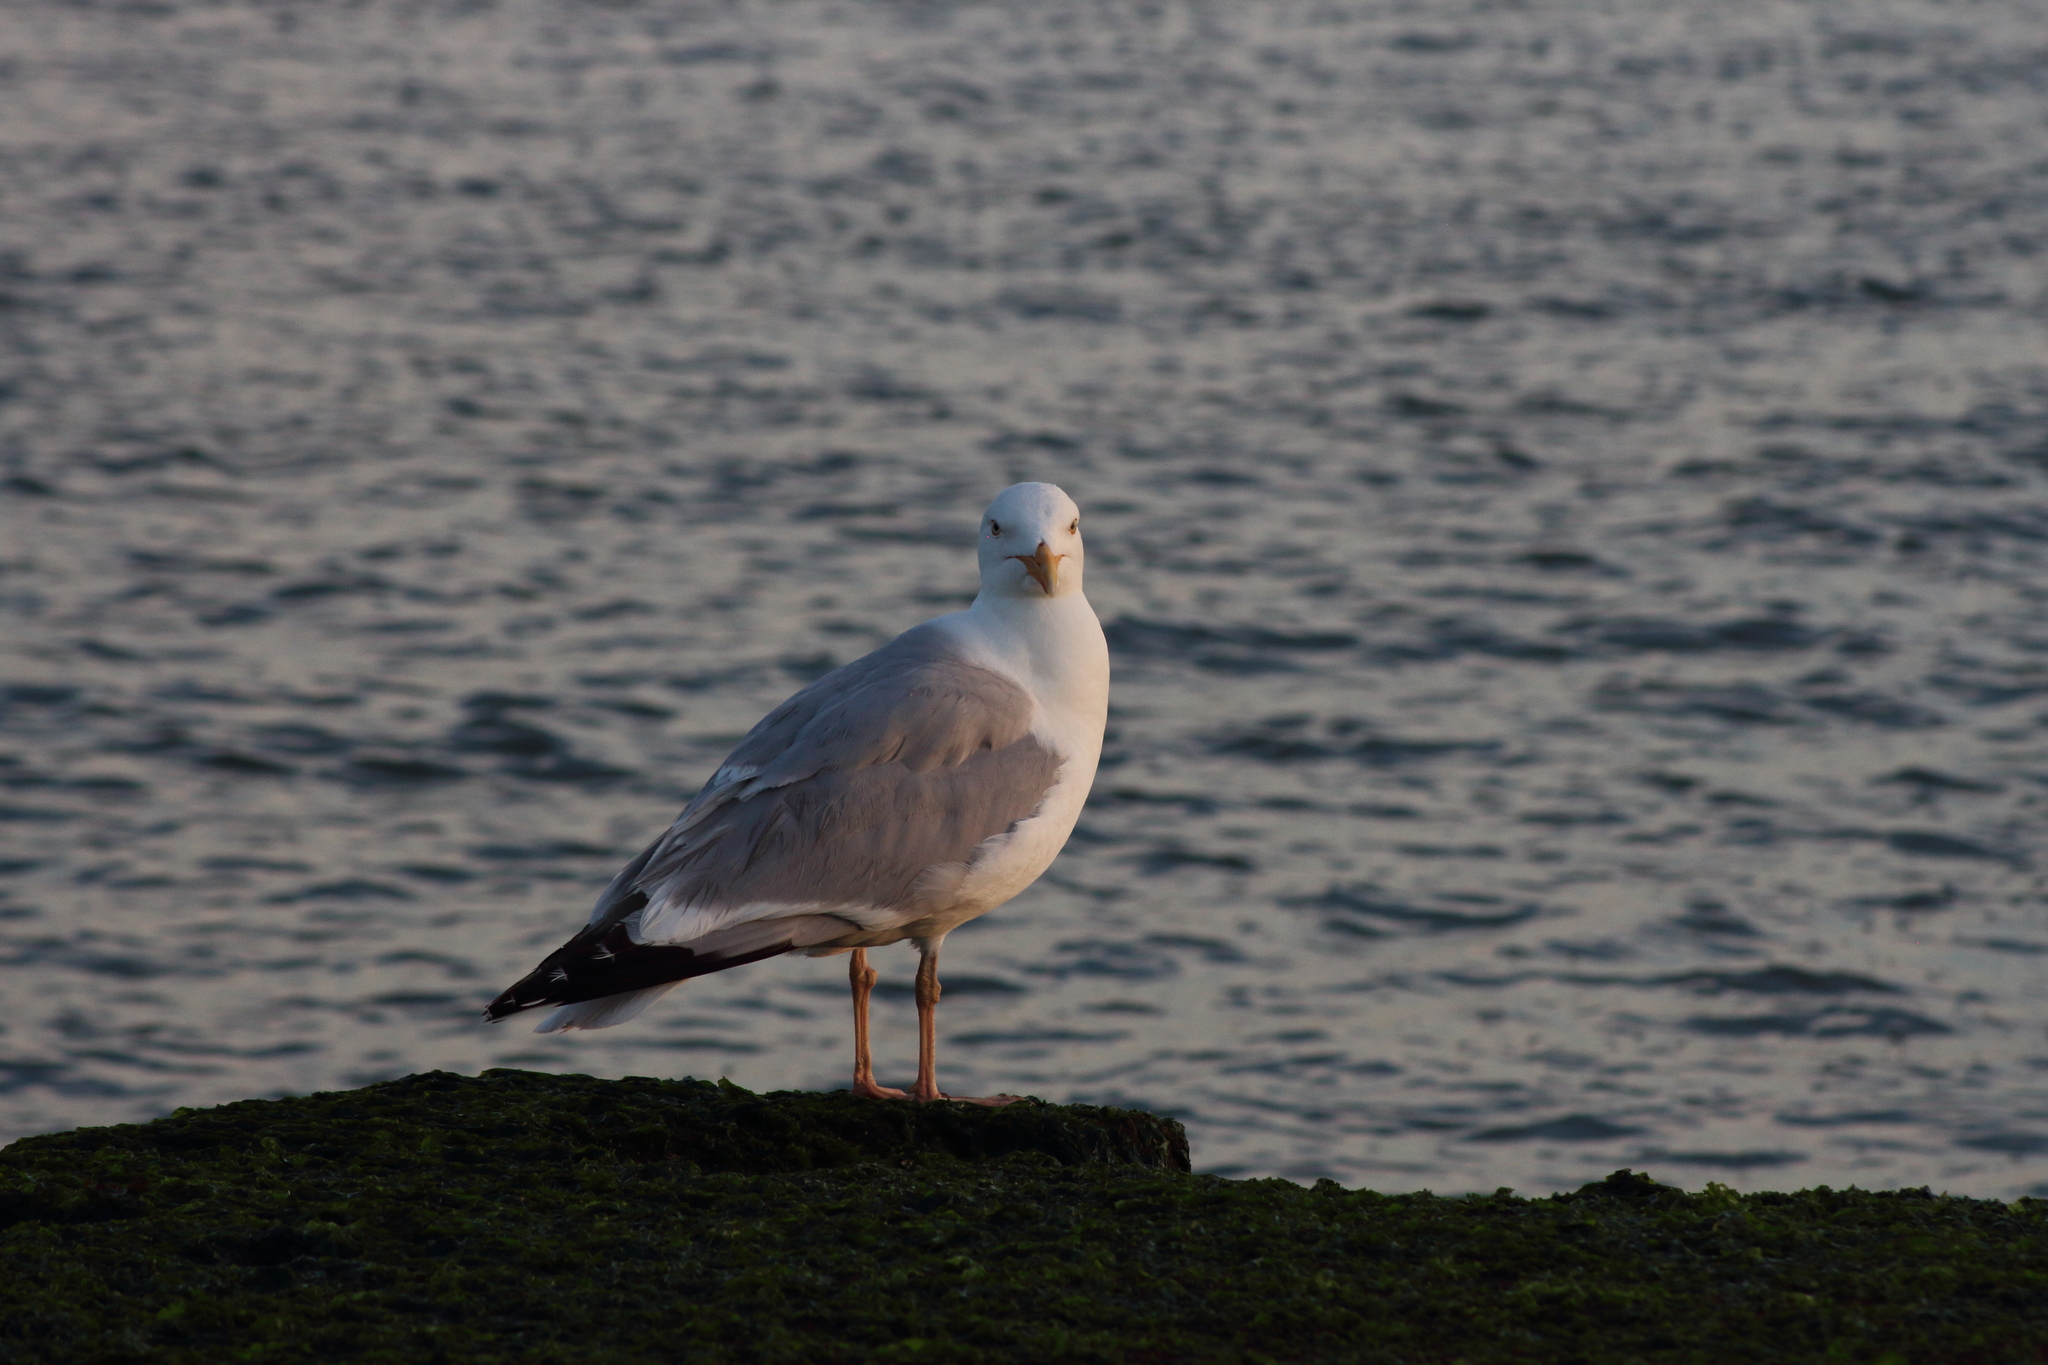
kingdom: Animalia
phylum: Chordata
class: Aves
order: Charadriiformes
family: Laridae
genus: Larus
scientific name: Larus argentatus
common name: Herring gull
